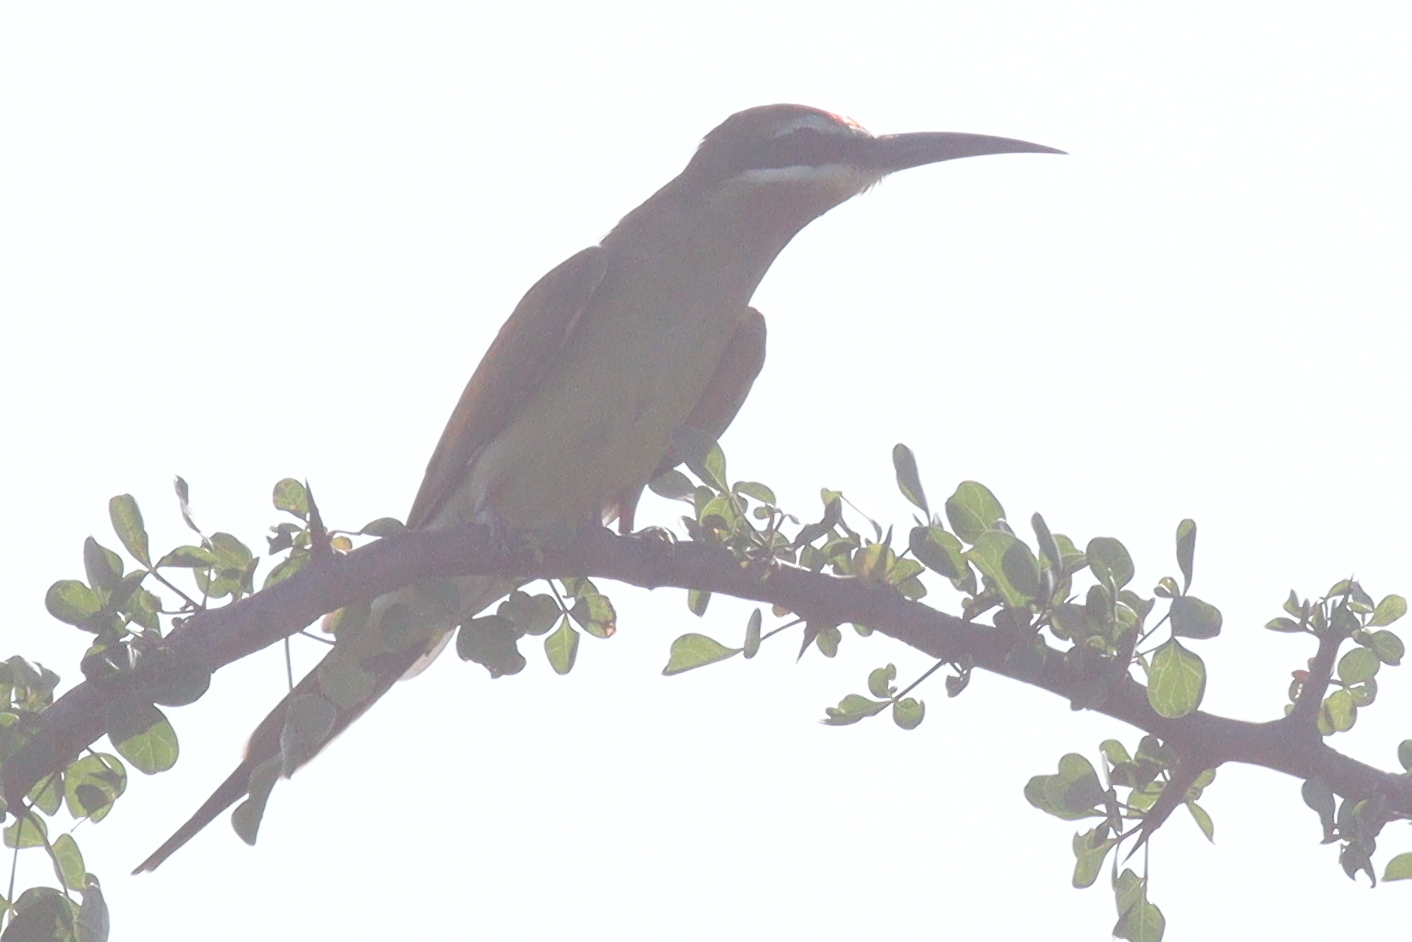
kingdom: Animalia
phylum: Chordata
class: Aves
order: Coraciiformes
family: Meropidae
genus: Merops
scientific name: Merops superciliosus
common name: Olive bee-eater
